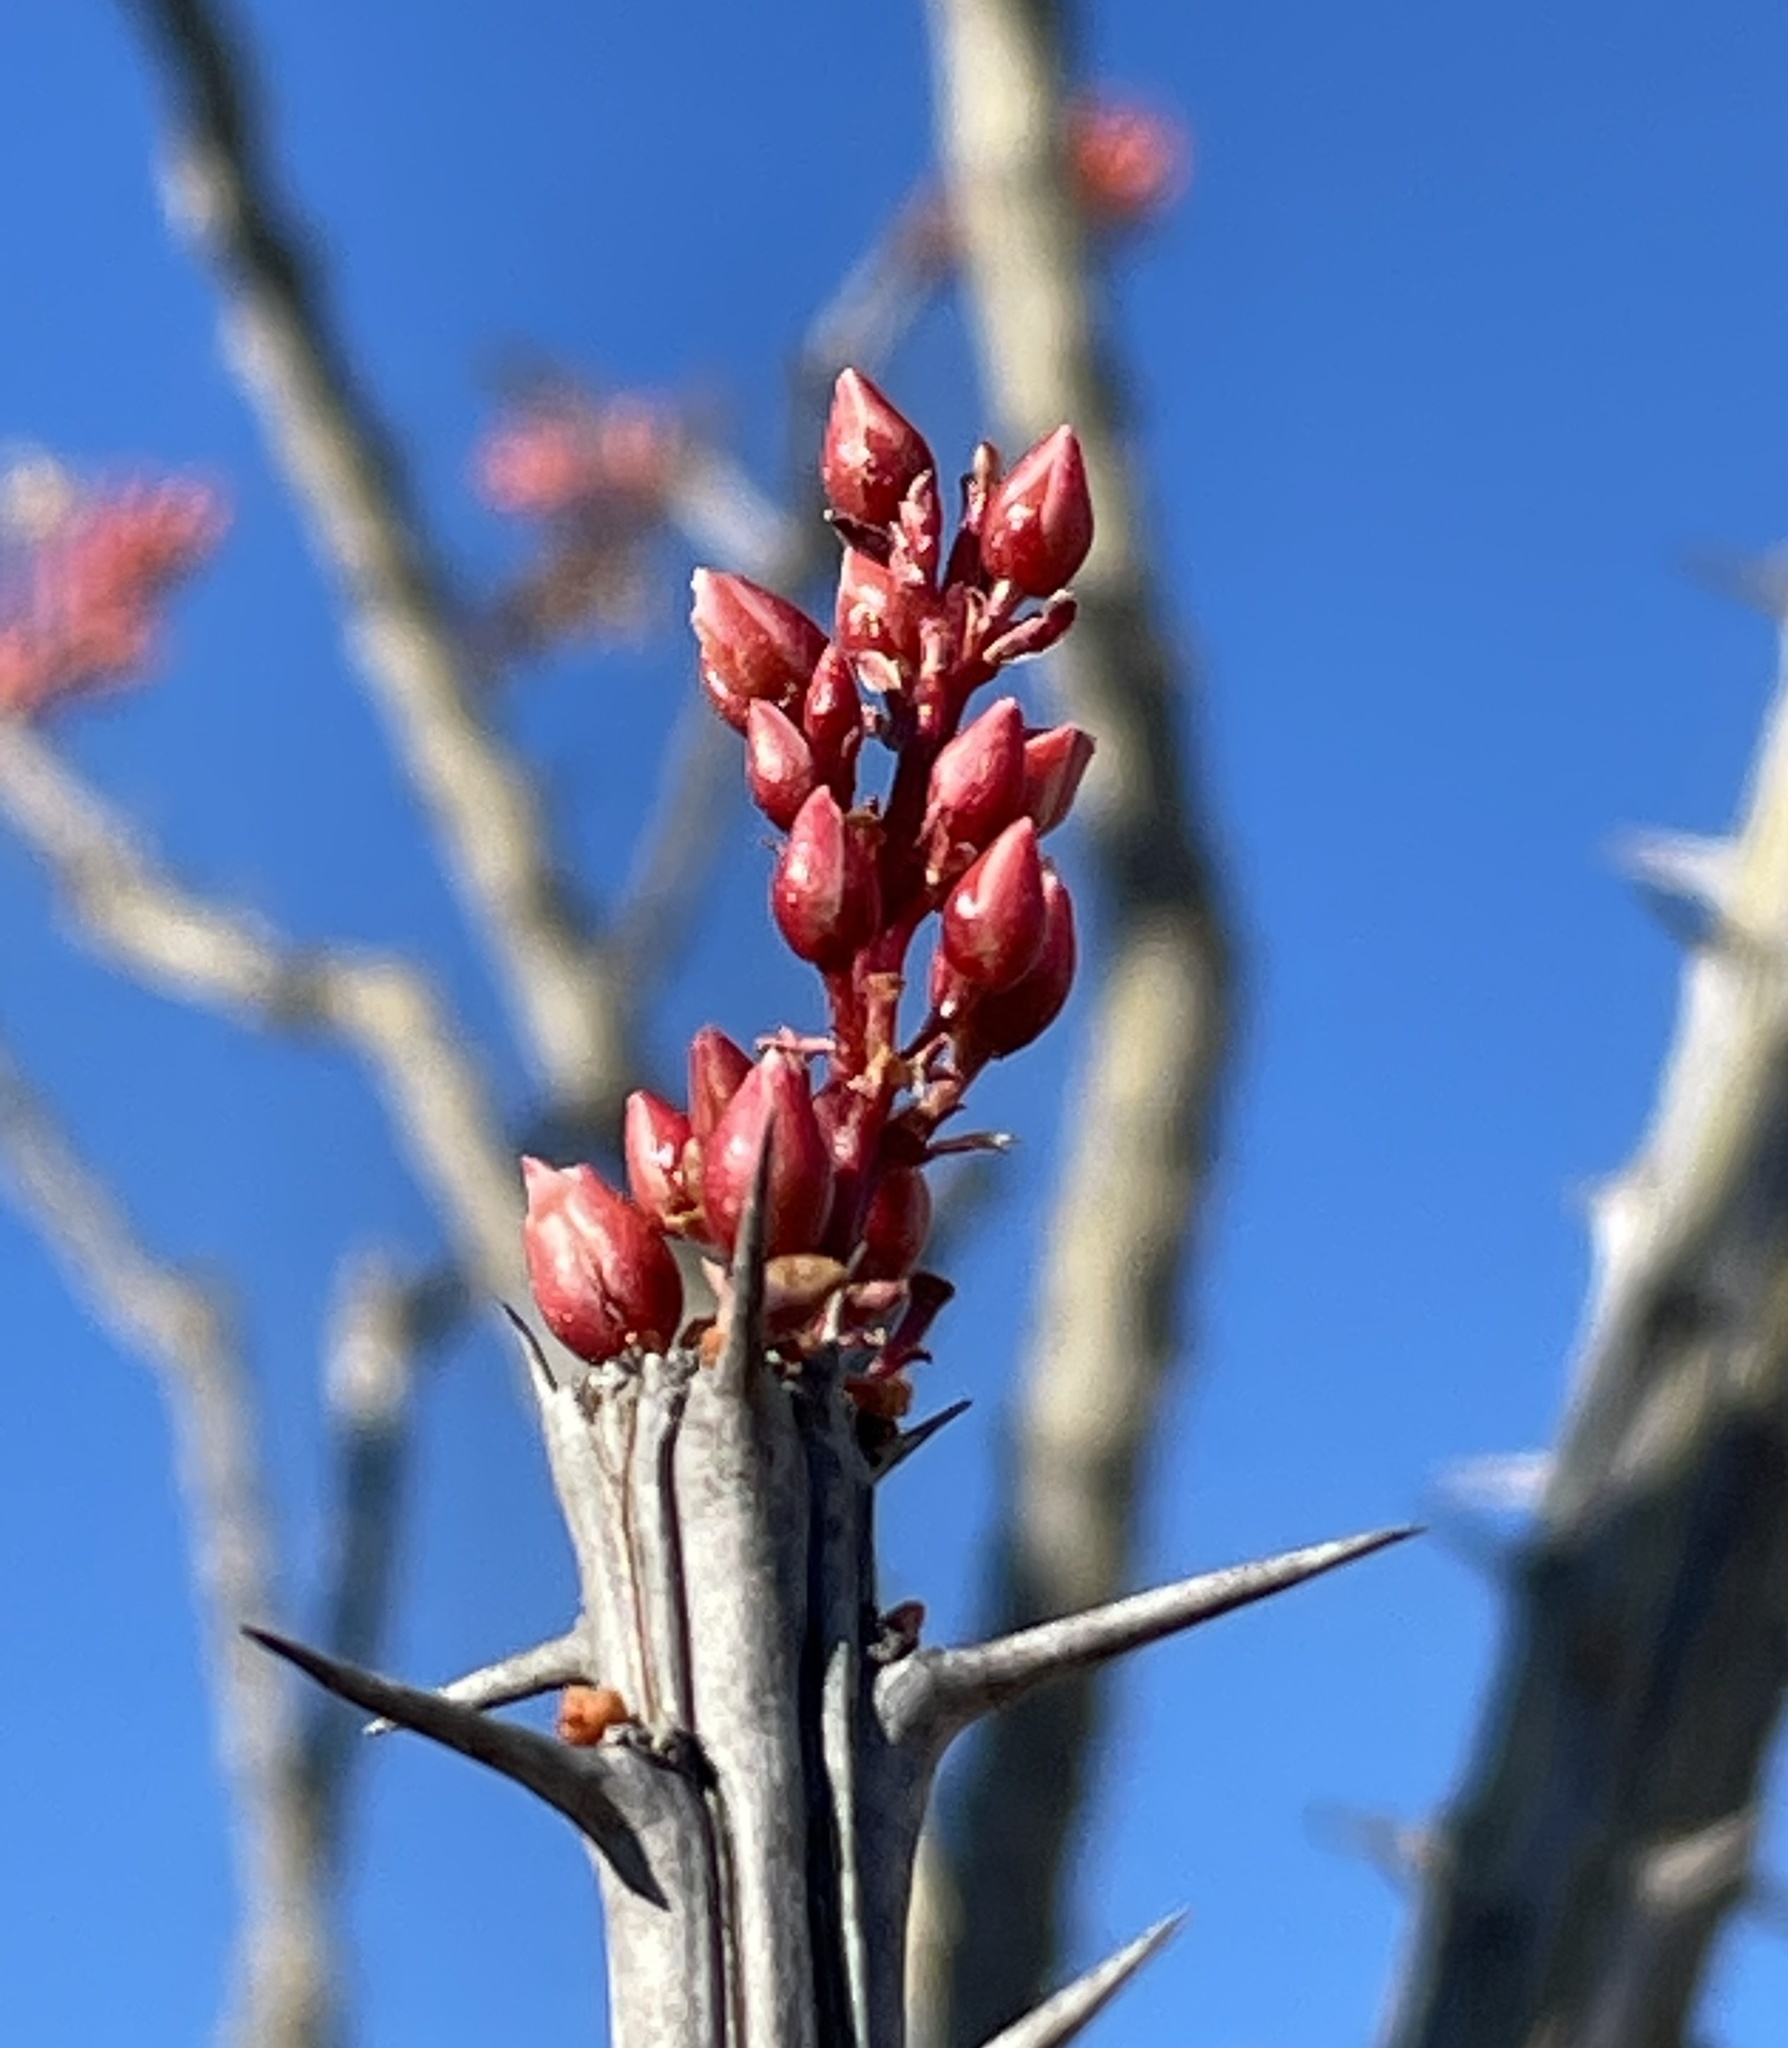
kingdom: Plantae
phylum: Tracheophyta
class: Magnoliopsida
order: Ericales
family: Fouquieriaceae
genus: Fouquieria
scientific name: Fouquieria splendens
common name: Vine-cactus
